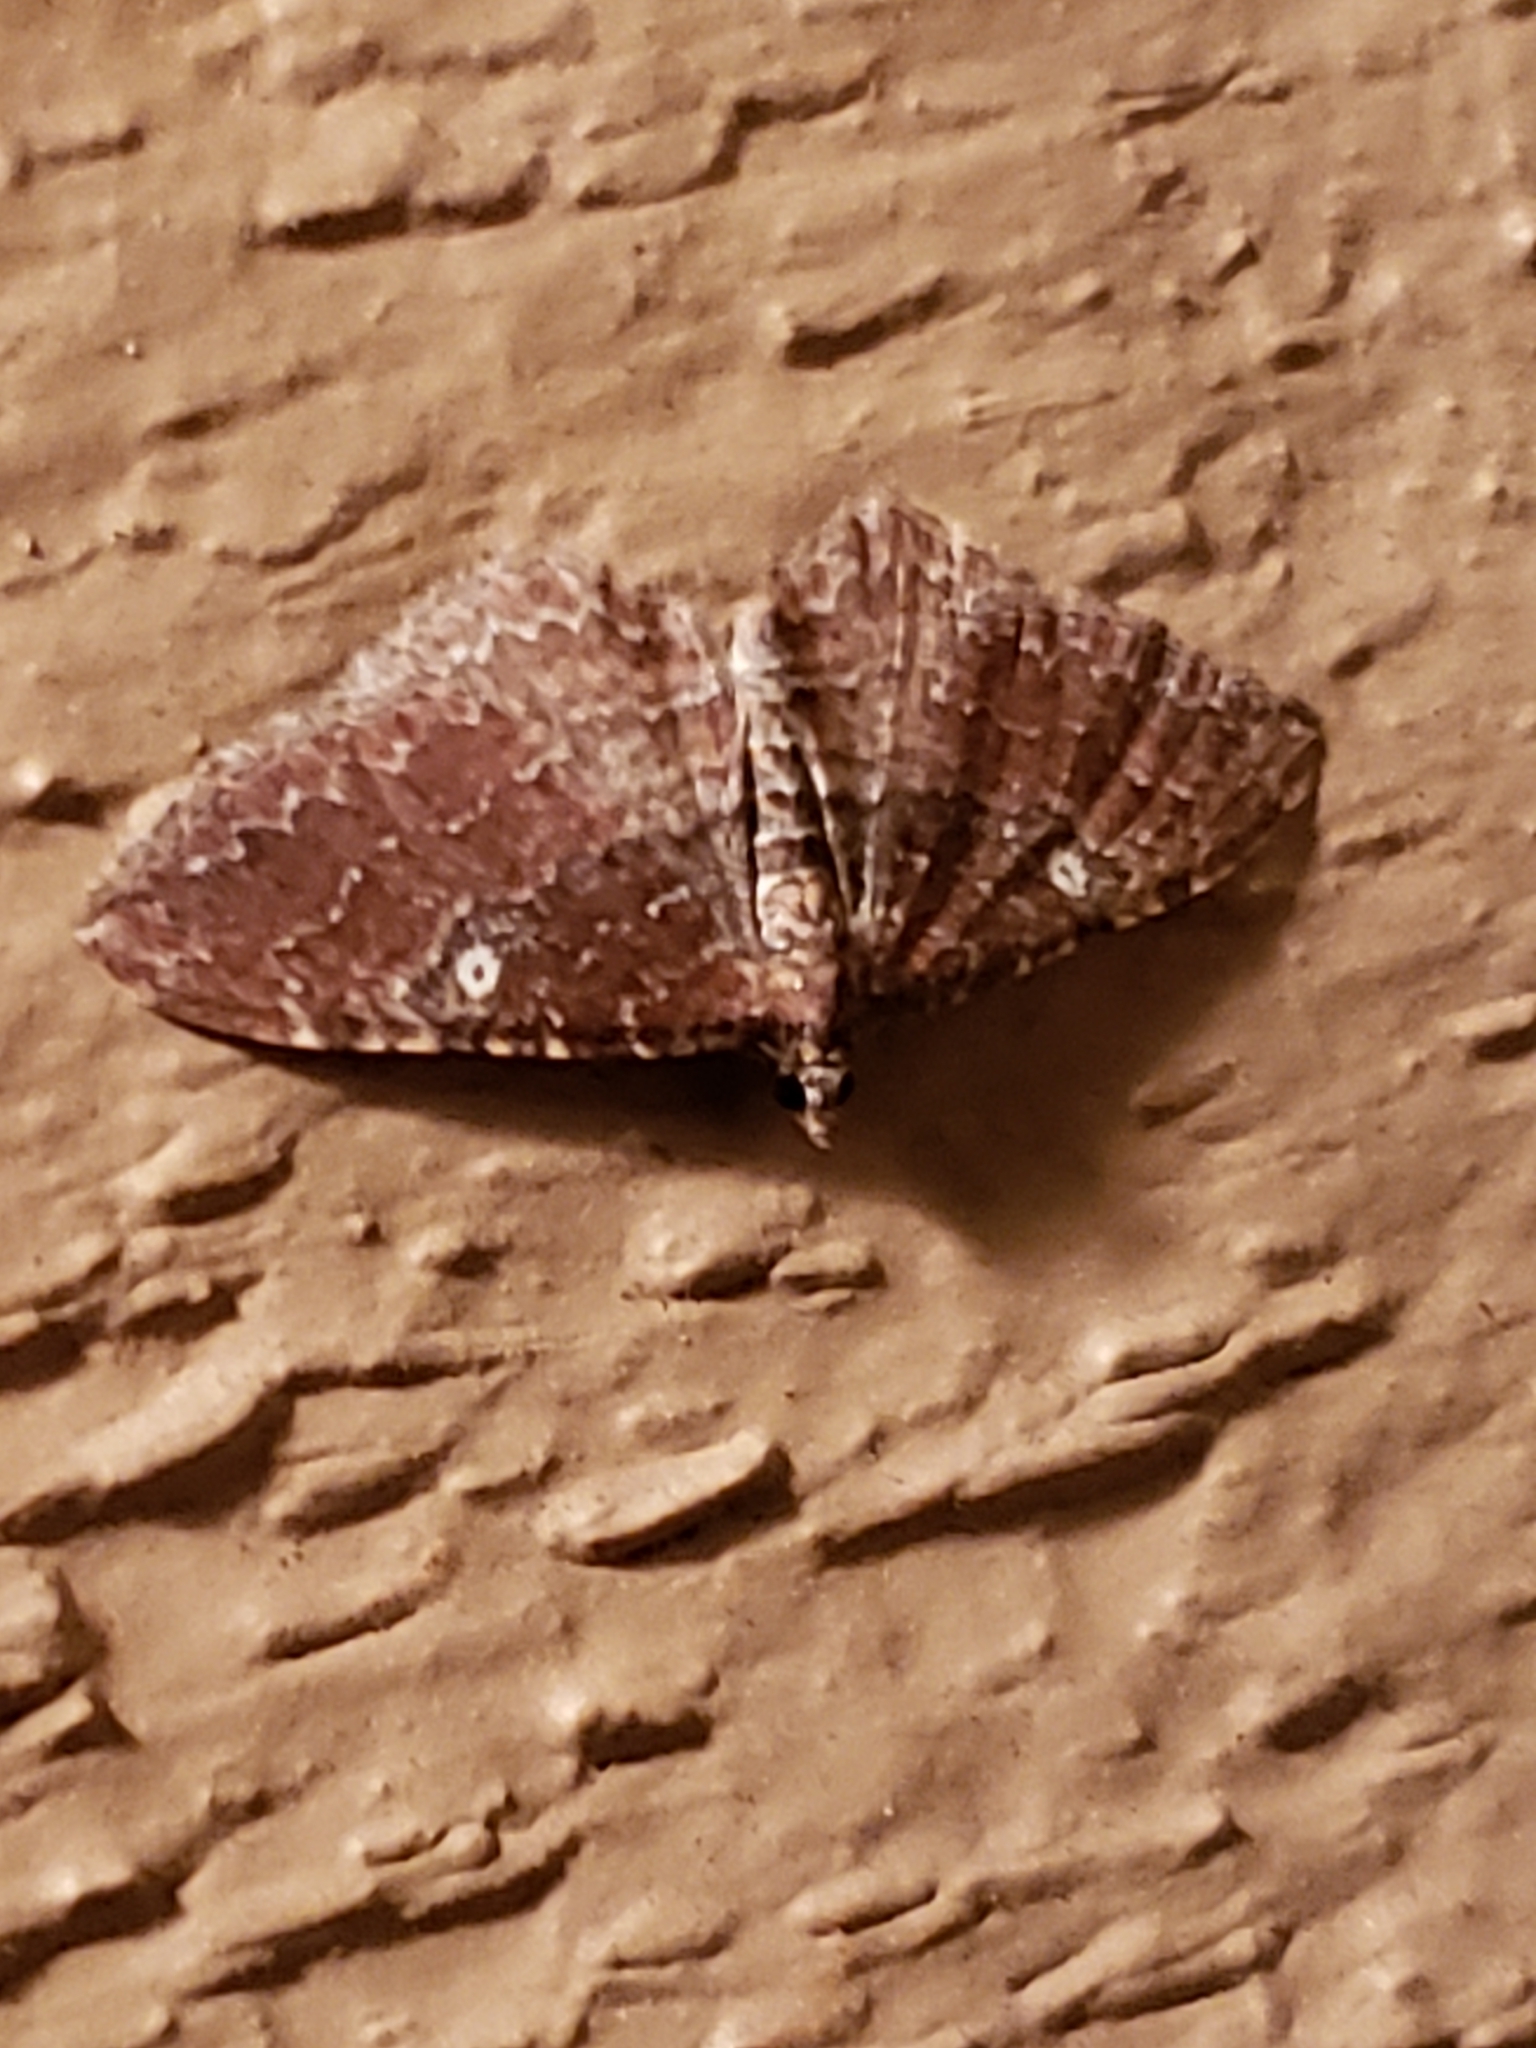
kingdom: Animalia
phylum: Arthropoda
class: Insecta
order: Lepidoptera
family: Geometridae
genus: Orthonama
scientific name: Orthonama obstipata
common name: The gem
